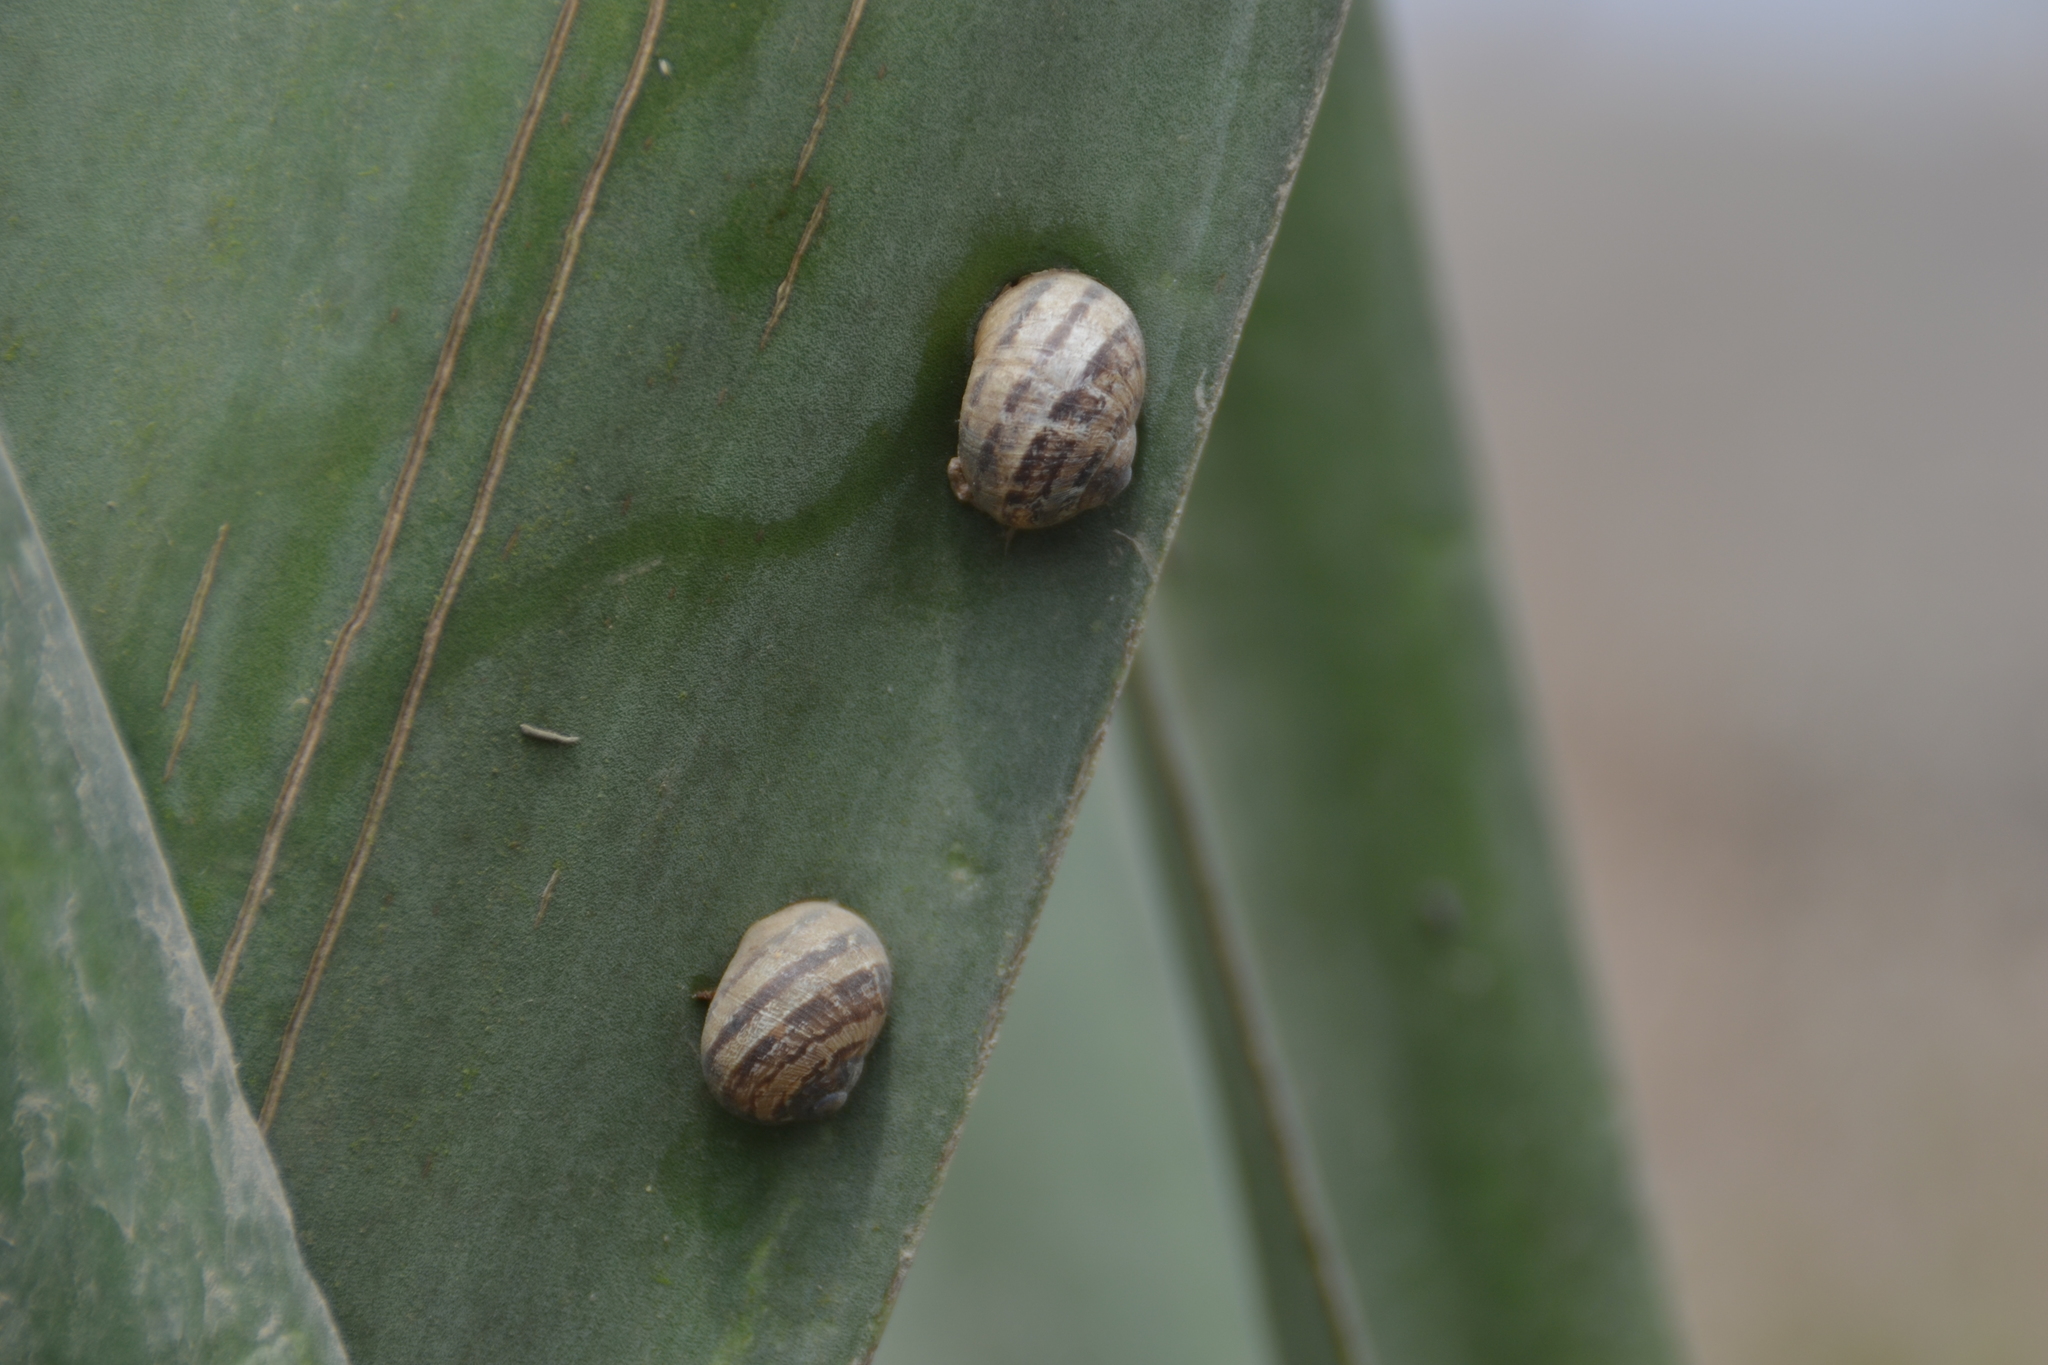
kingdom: Animalia
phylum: Mollusca
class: Gastropoda
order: Stylommatophora
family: Helicidae
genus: Cornu
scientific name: Cornu aspersum
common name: Brown garden snail
